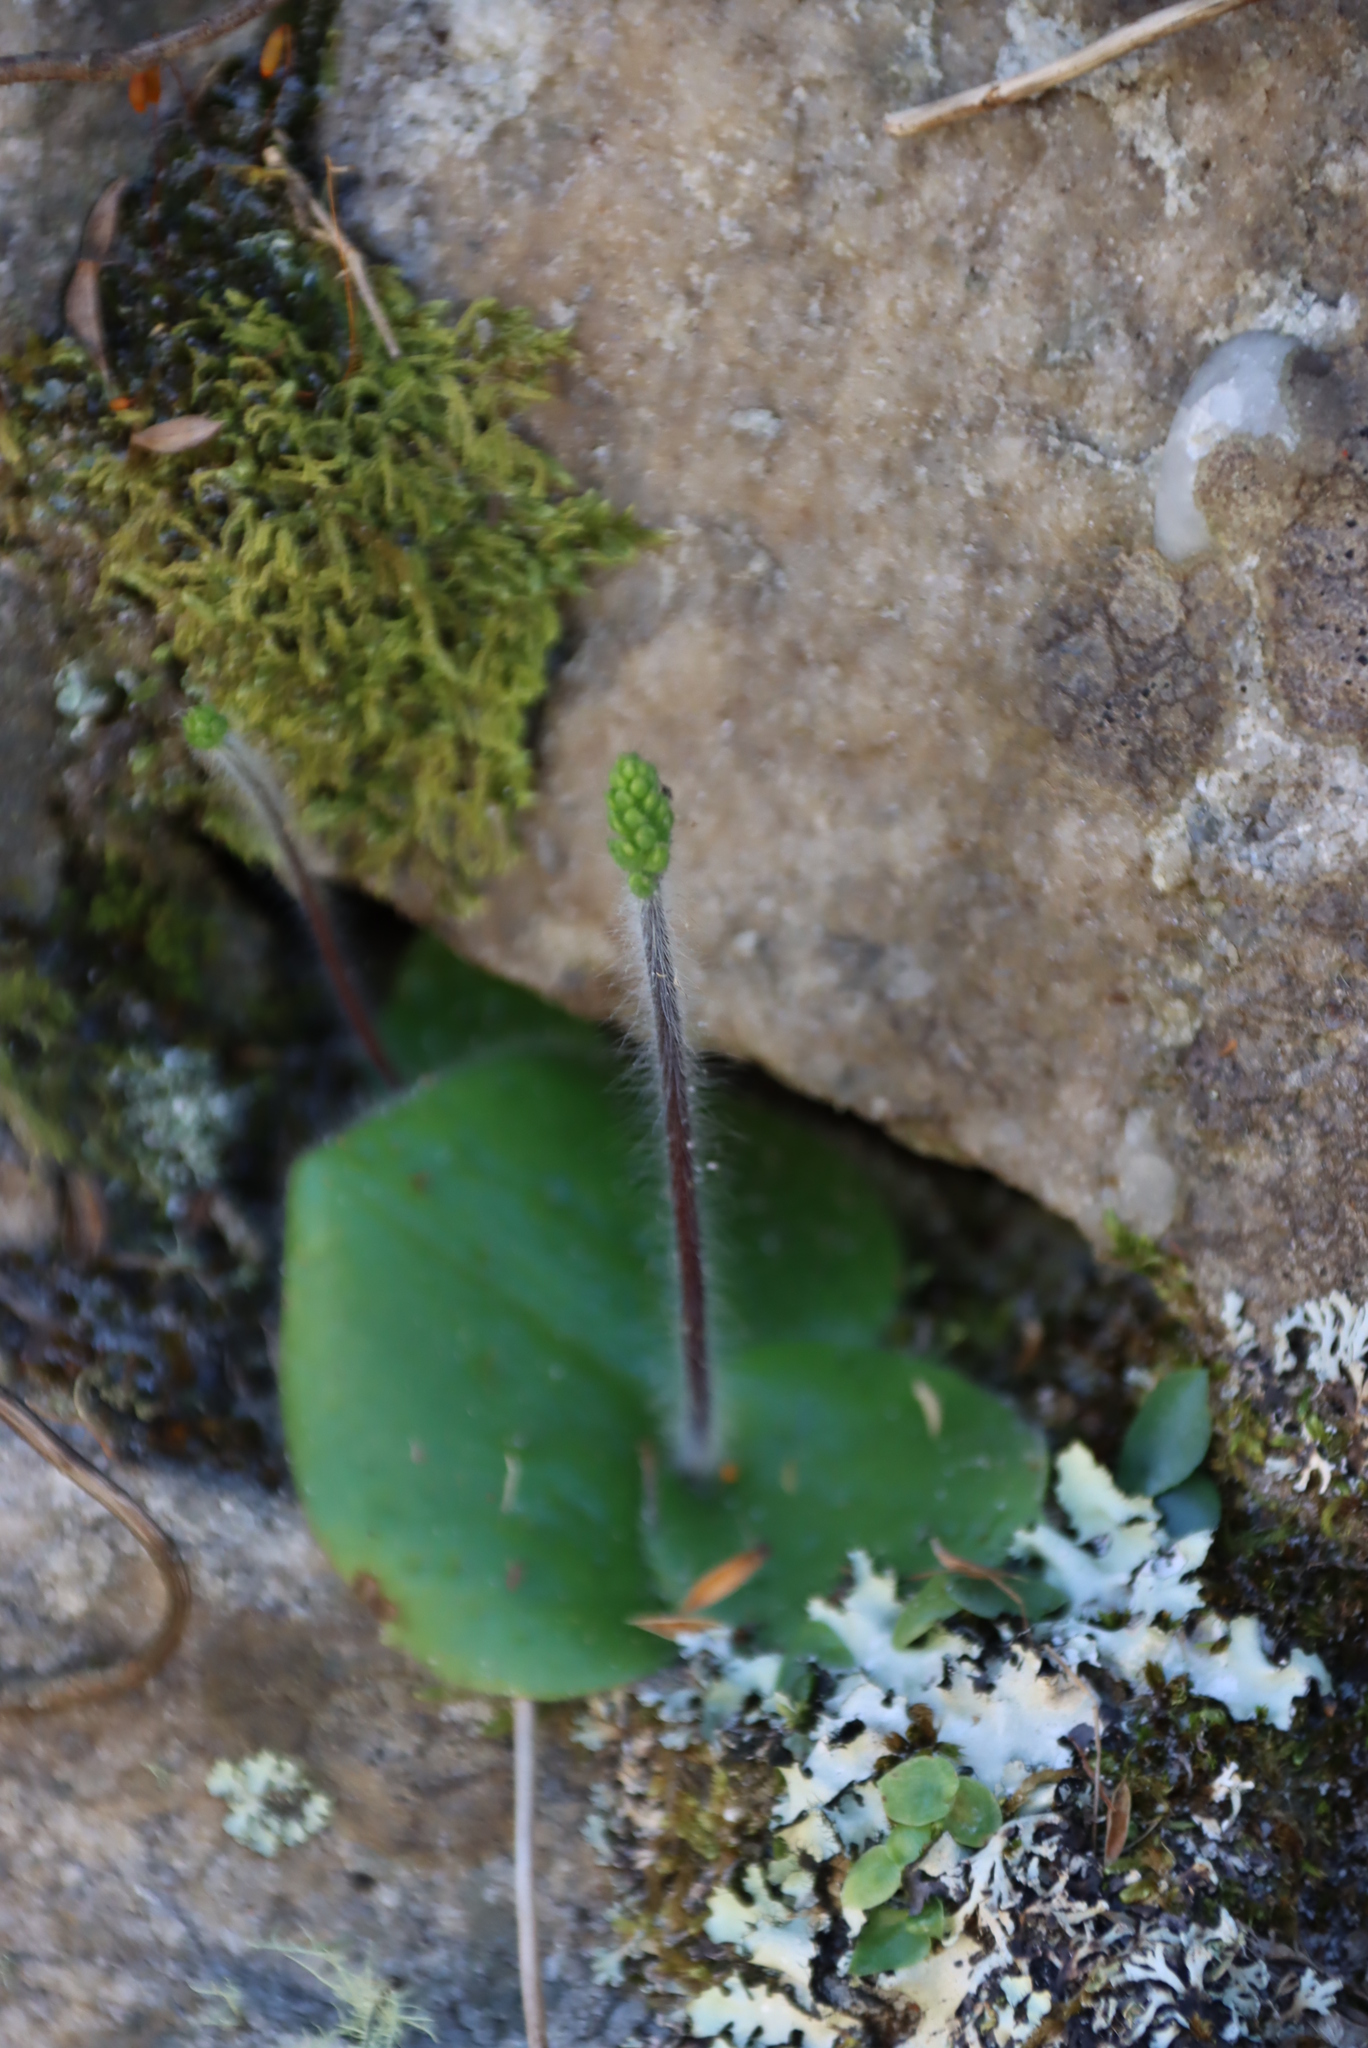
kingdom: Plantae
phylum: Tracheophyta
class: Liliopsida
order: Asparagales
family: Orchidaceae
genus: Holothrix
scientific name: Holothrix condensata
